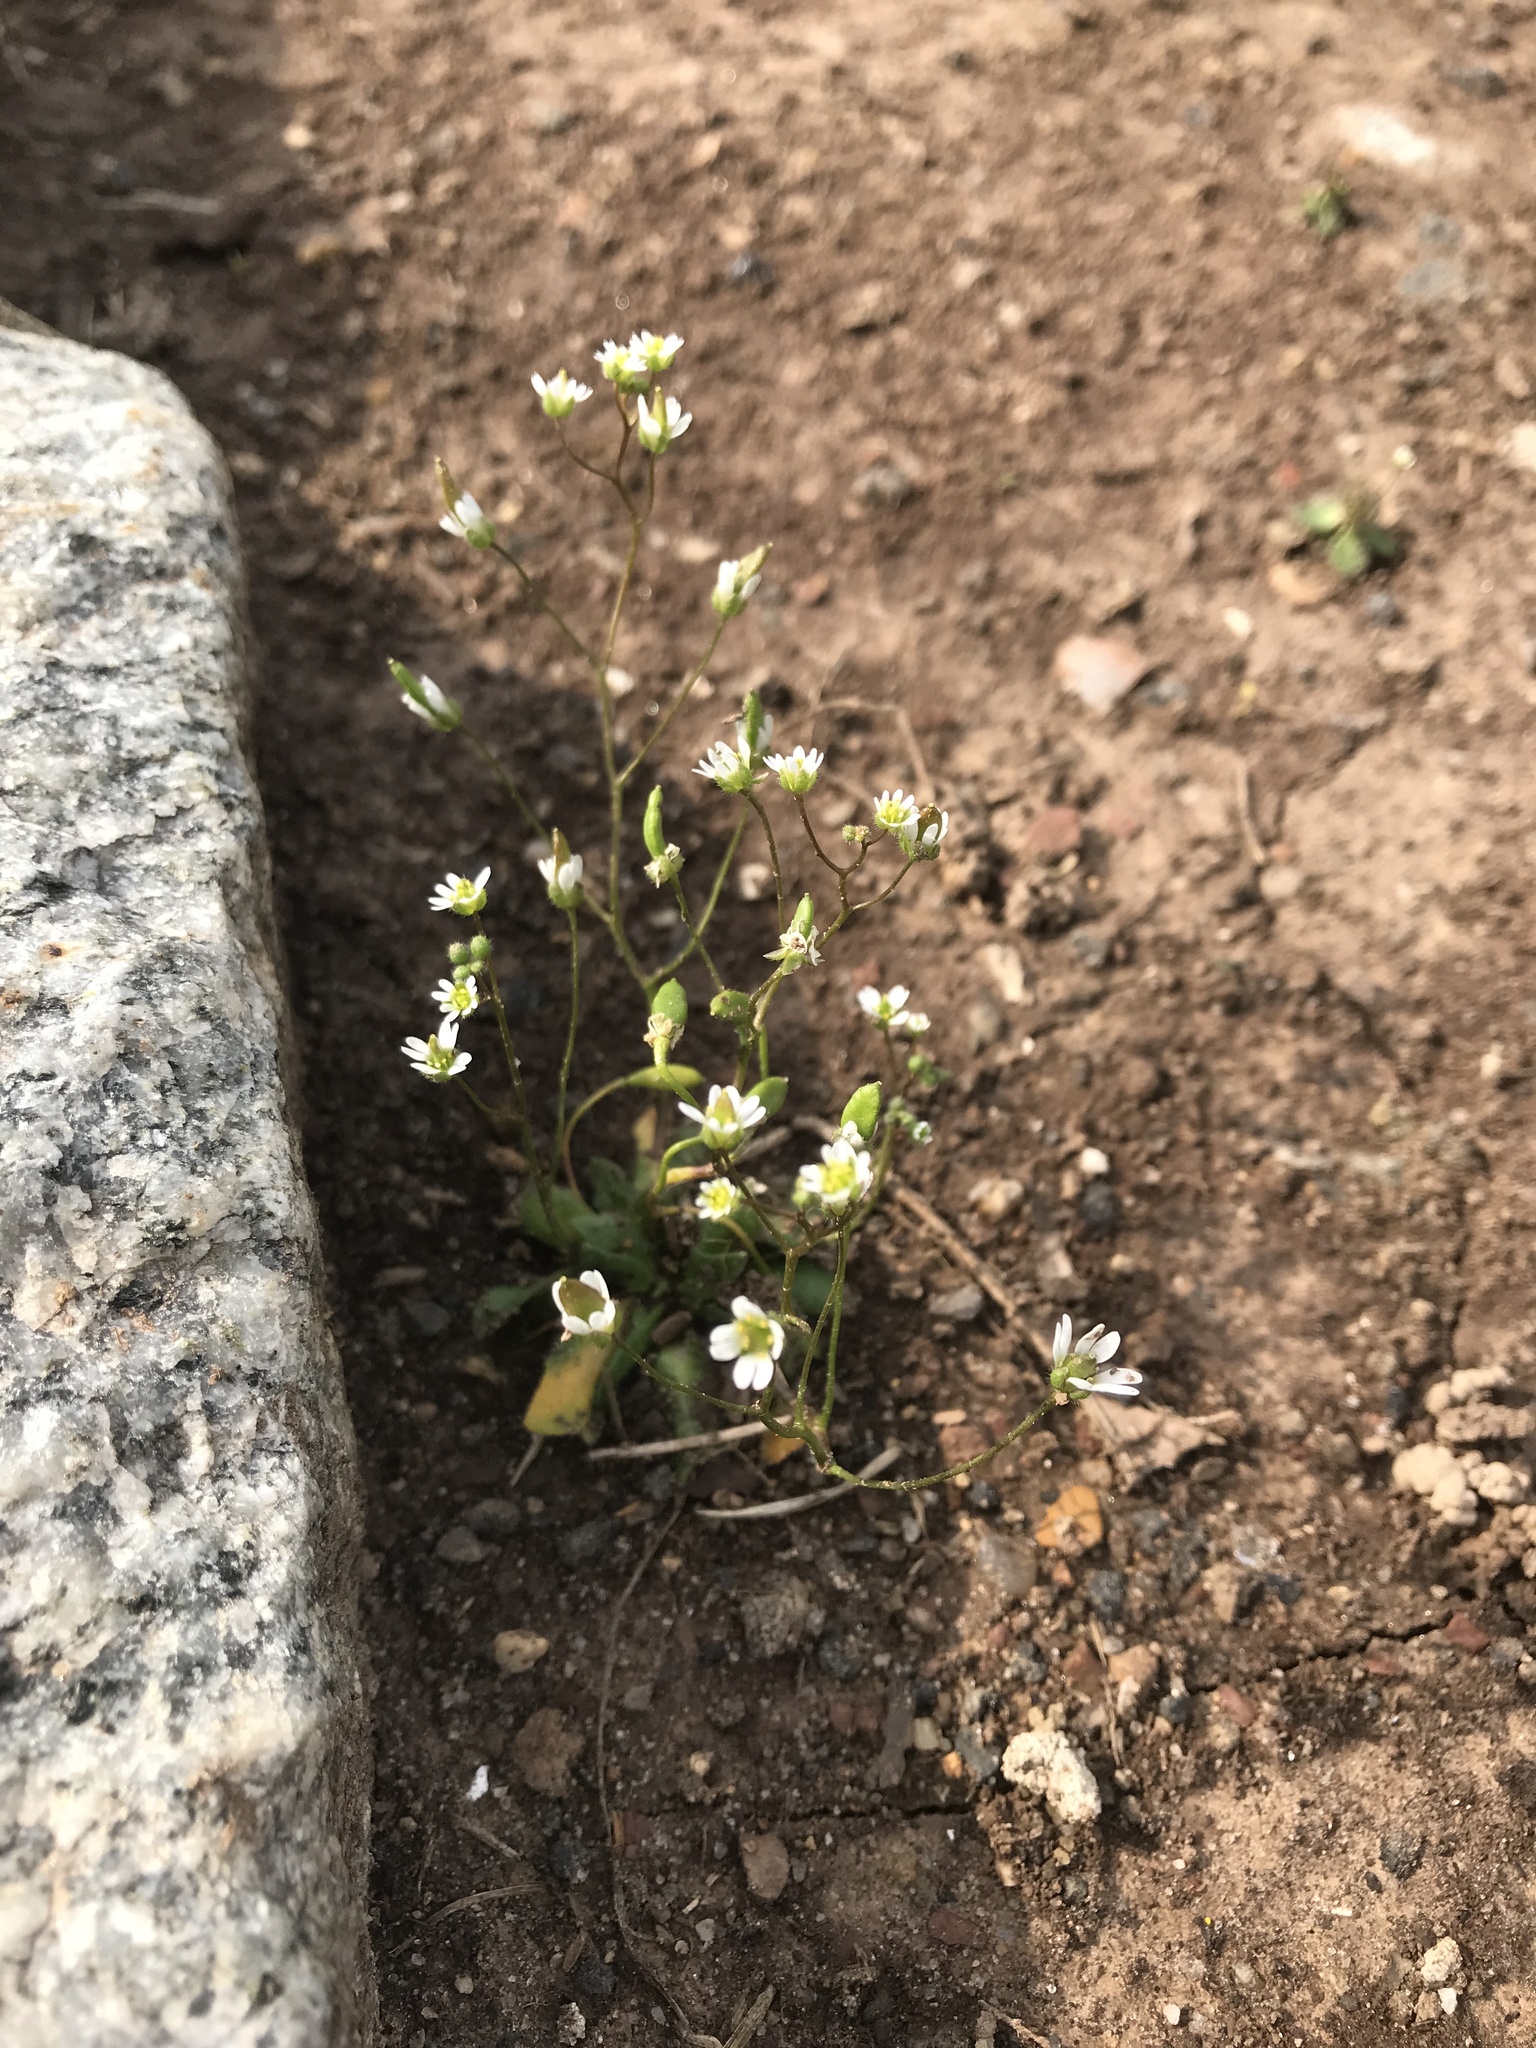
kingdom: Plantae
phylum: Tracheophyta
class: Magnoliopsida
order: Brassicales
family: Brassicaceae
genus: Draba
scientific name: Draba verna
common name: Spring draba
